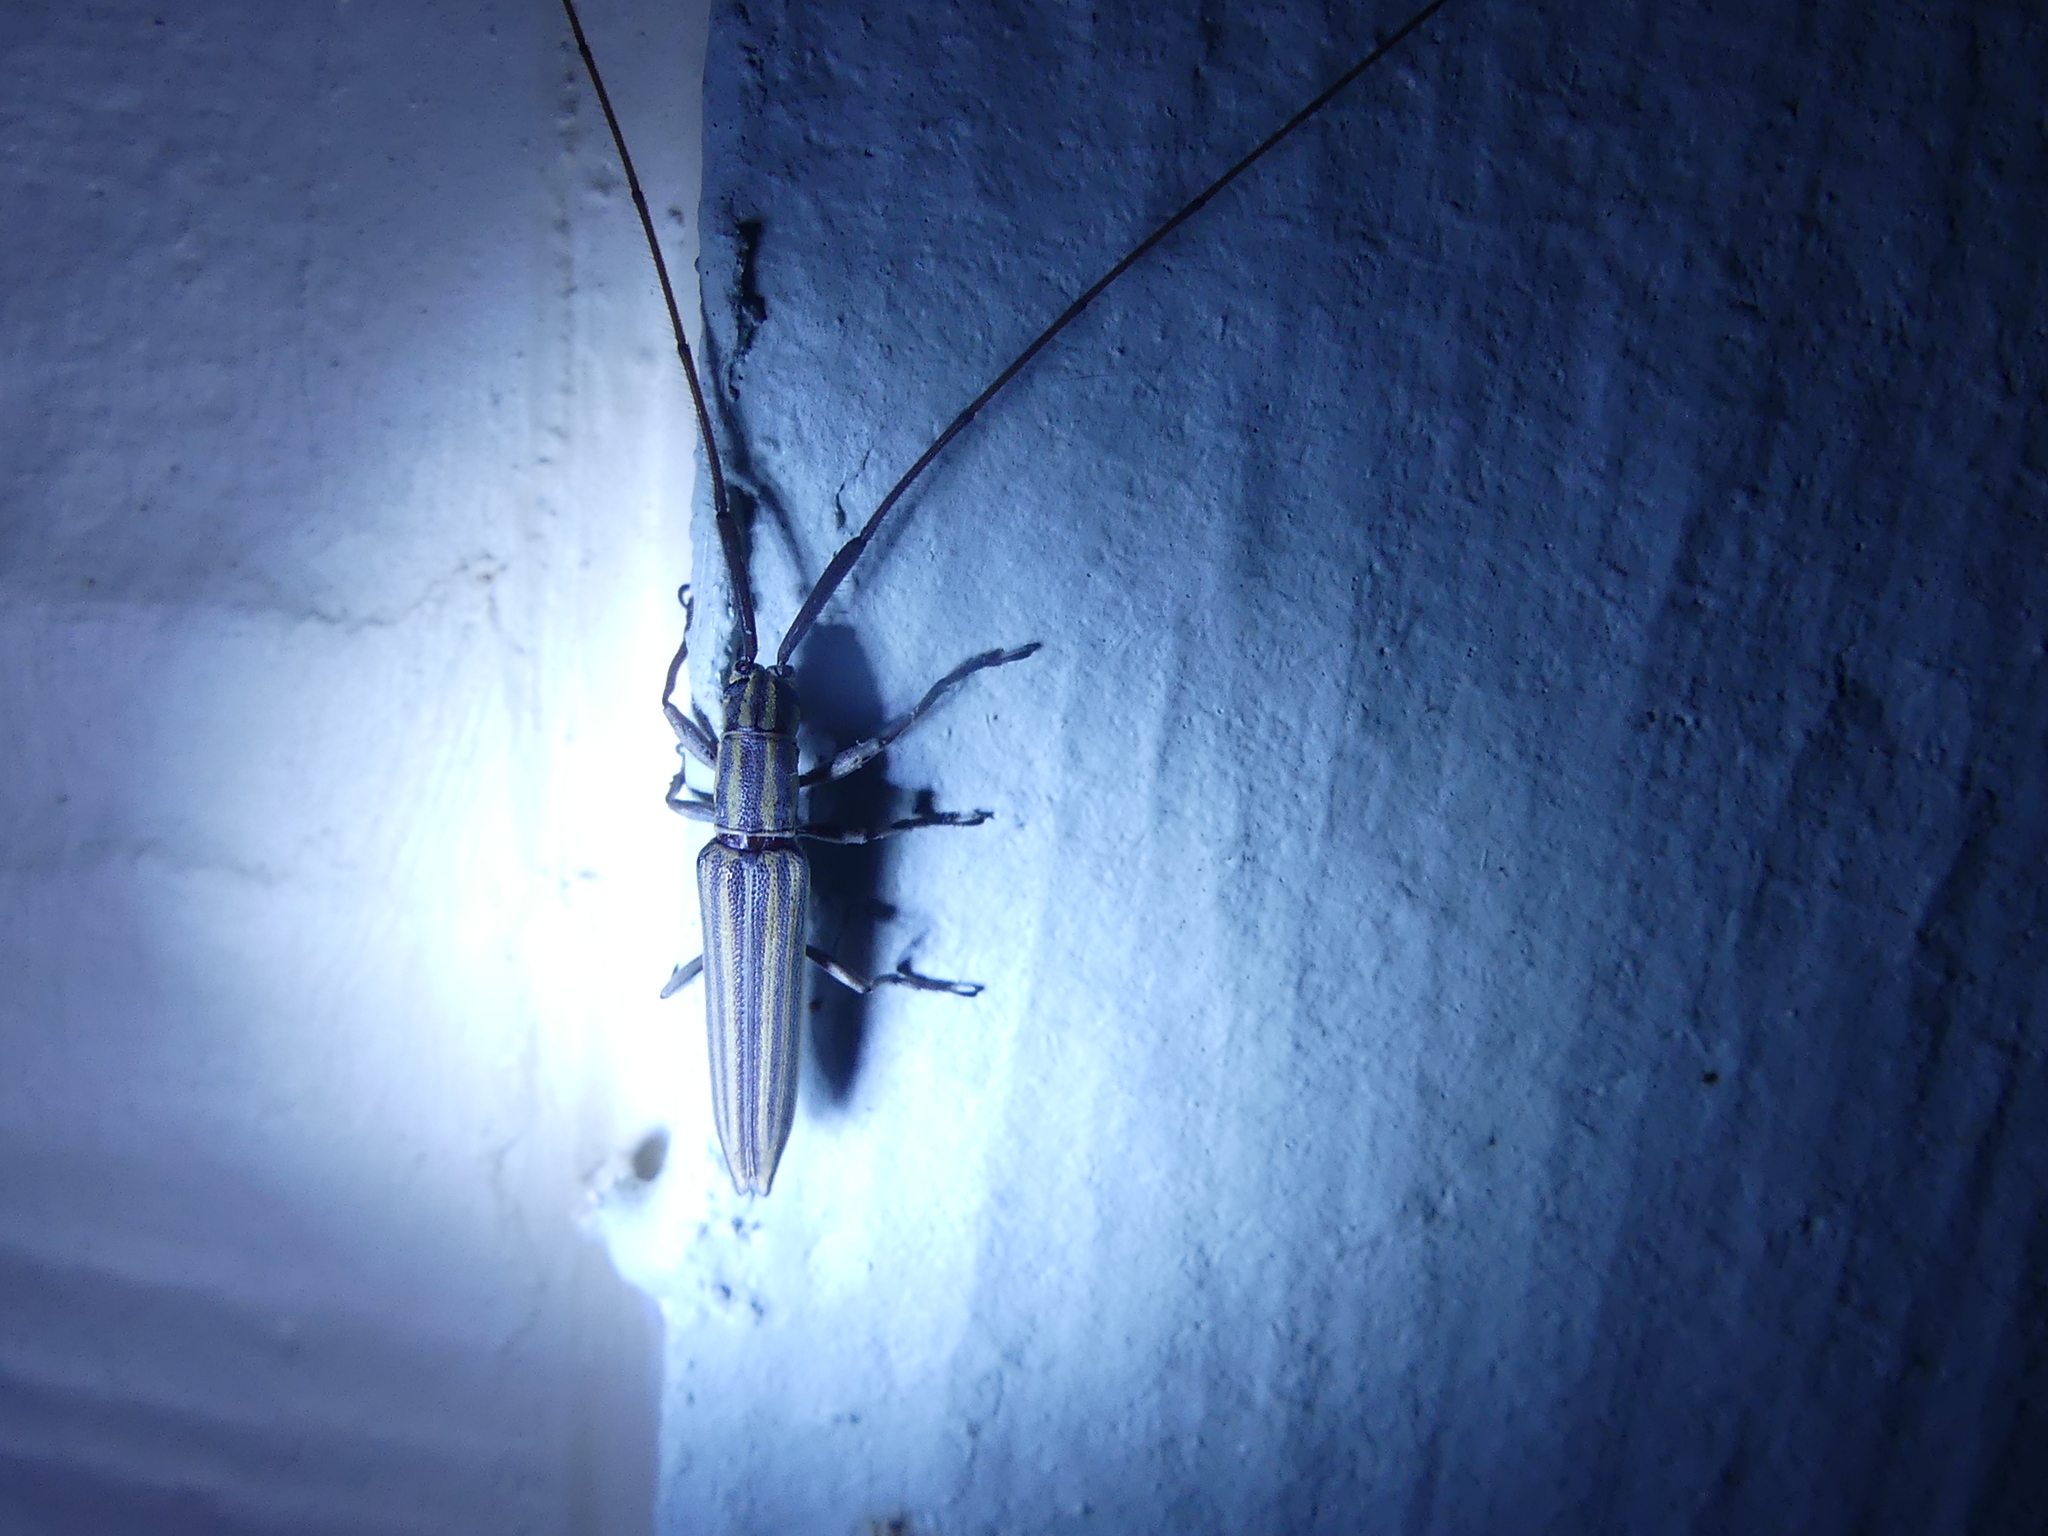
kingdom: Animalia
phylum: Arthropoda
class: Insecta
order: Coleoptera
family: Cerambycidae
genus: Hippopsis
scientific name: Hippopsis
